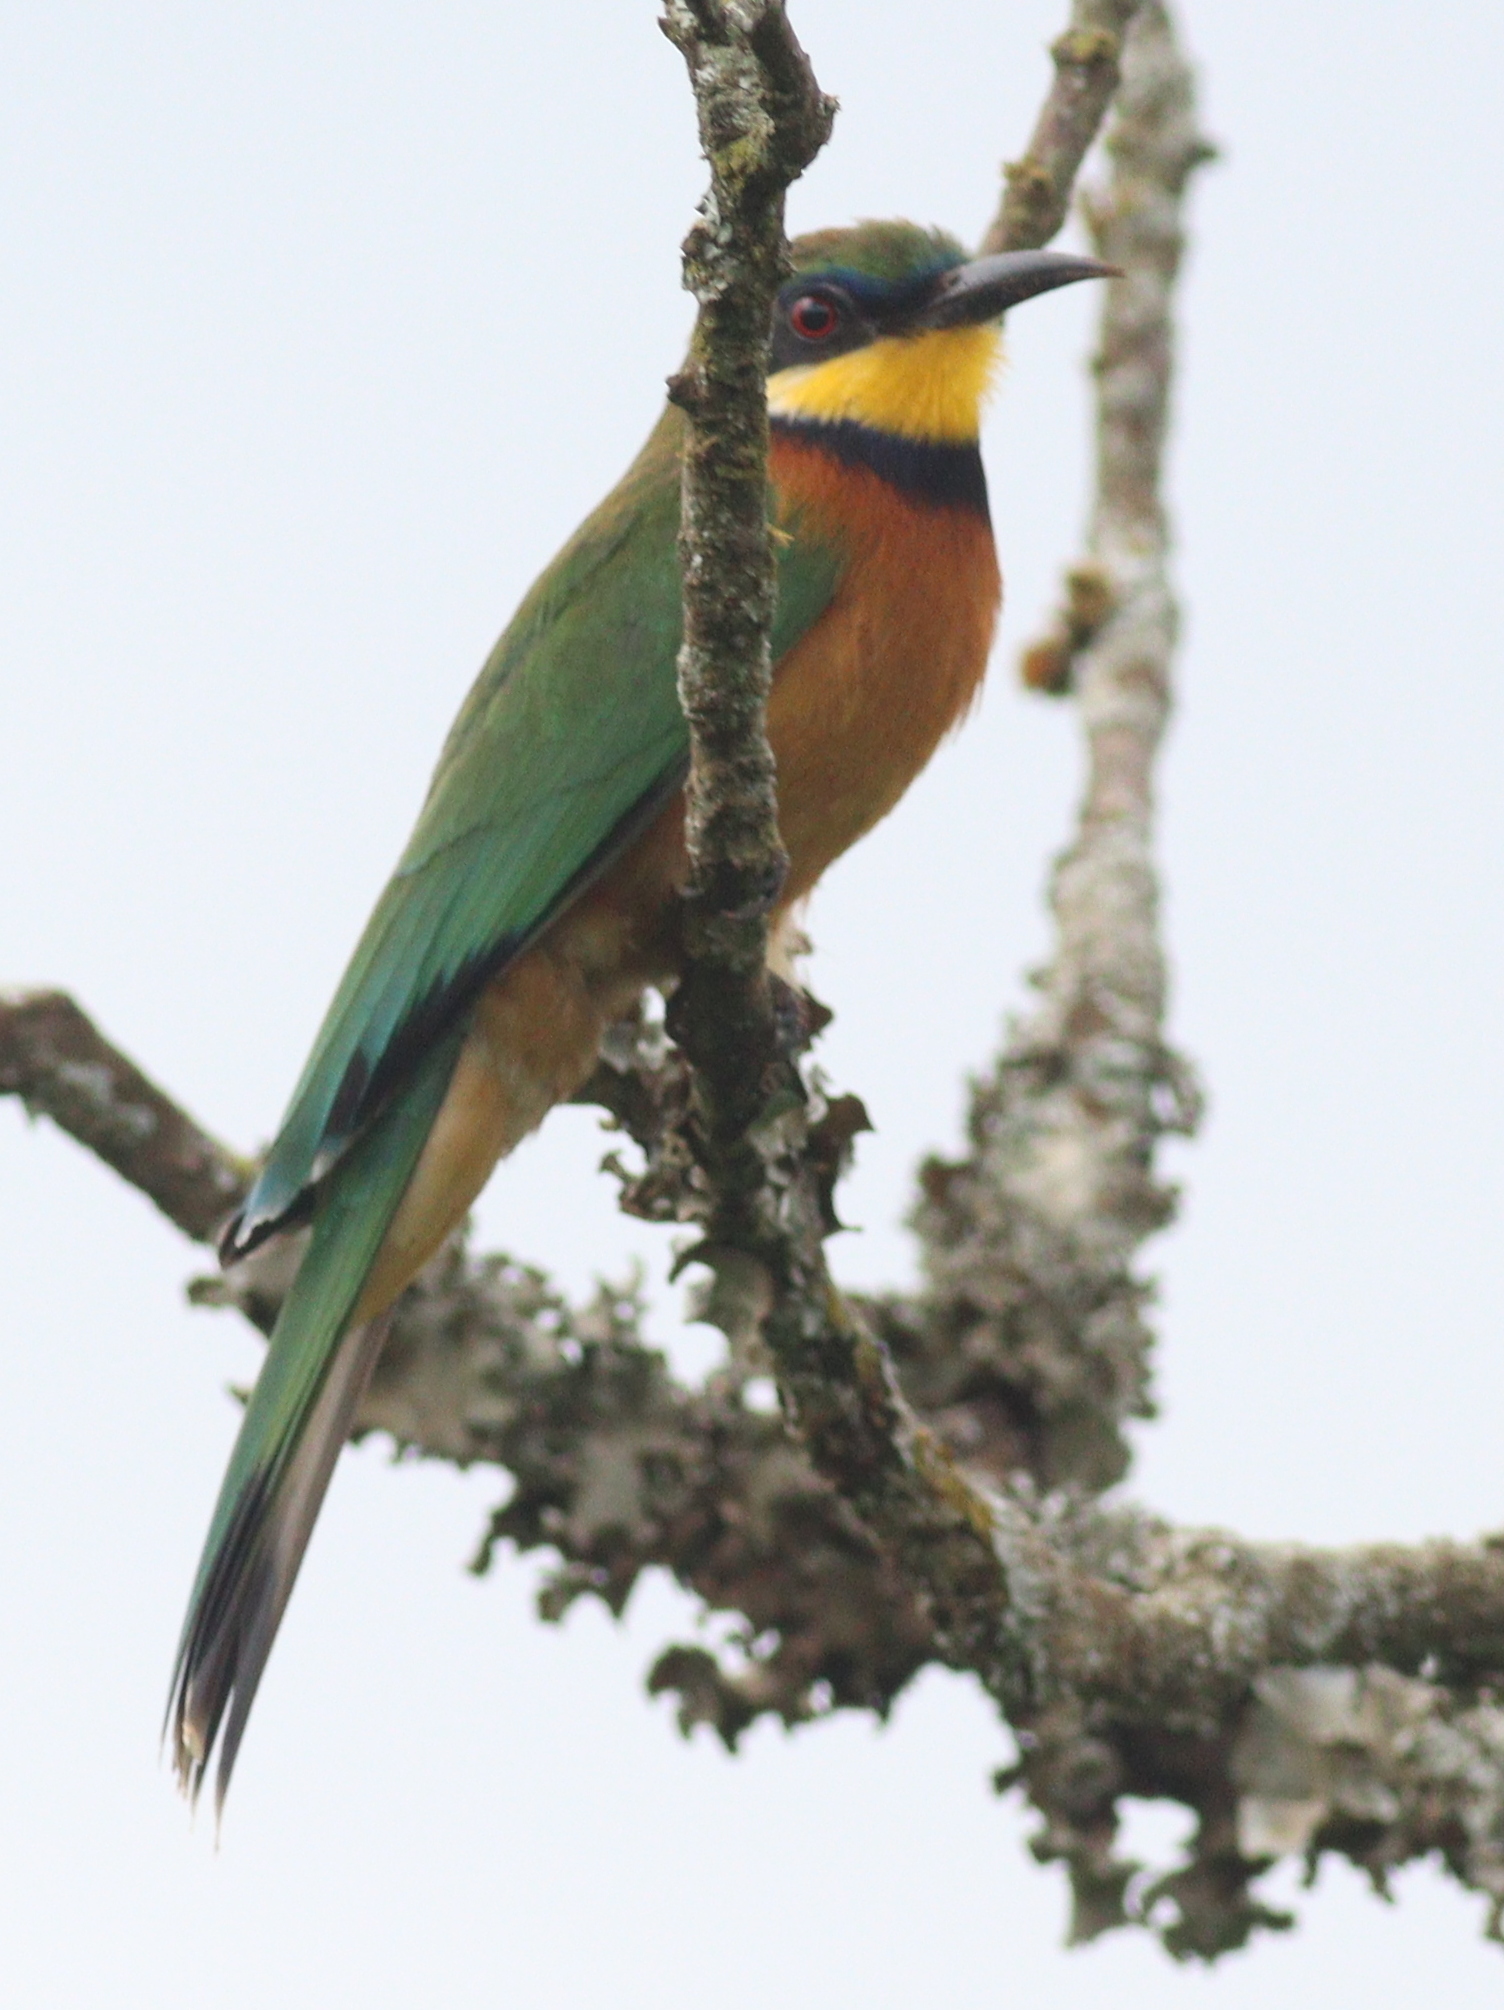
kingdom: Animalia
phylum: Chordata
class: Aves
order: Coraciiformes
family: Meropidae
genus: Merops
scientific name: Merops oreobates
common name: Cinnamon-chested bee-eater
